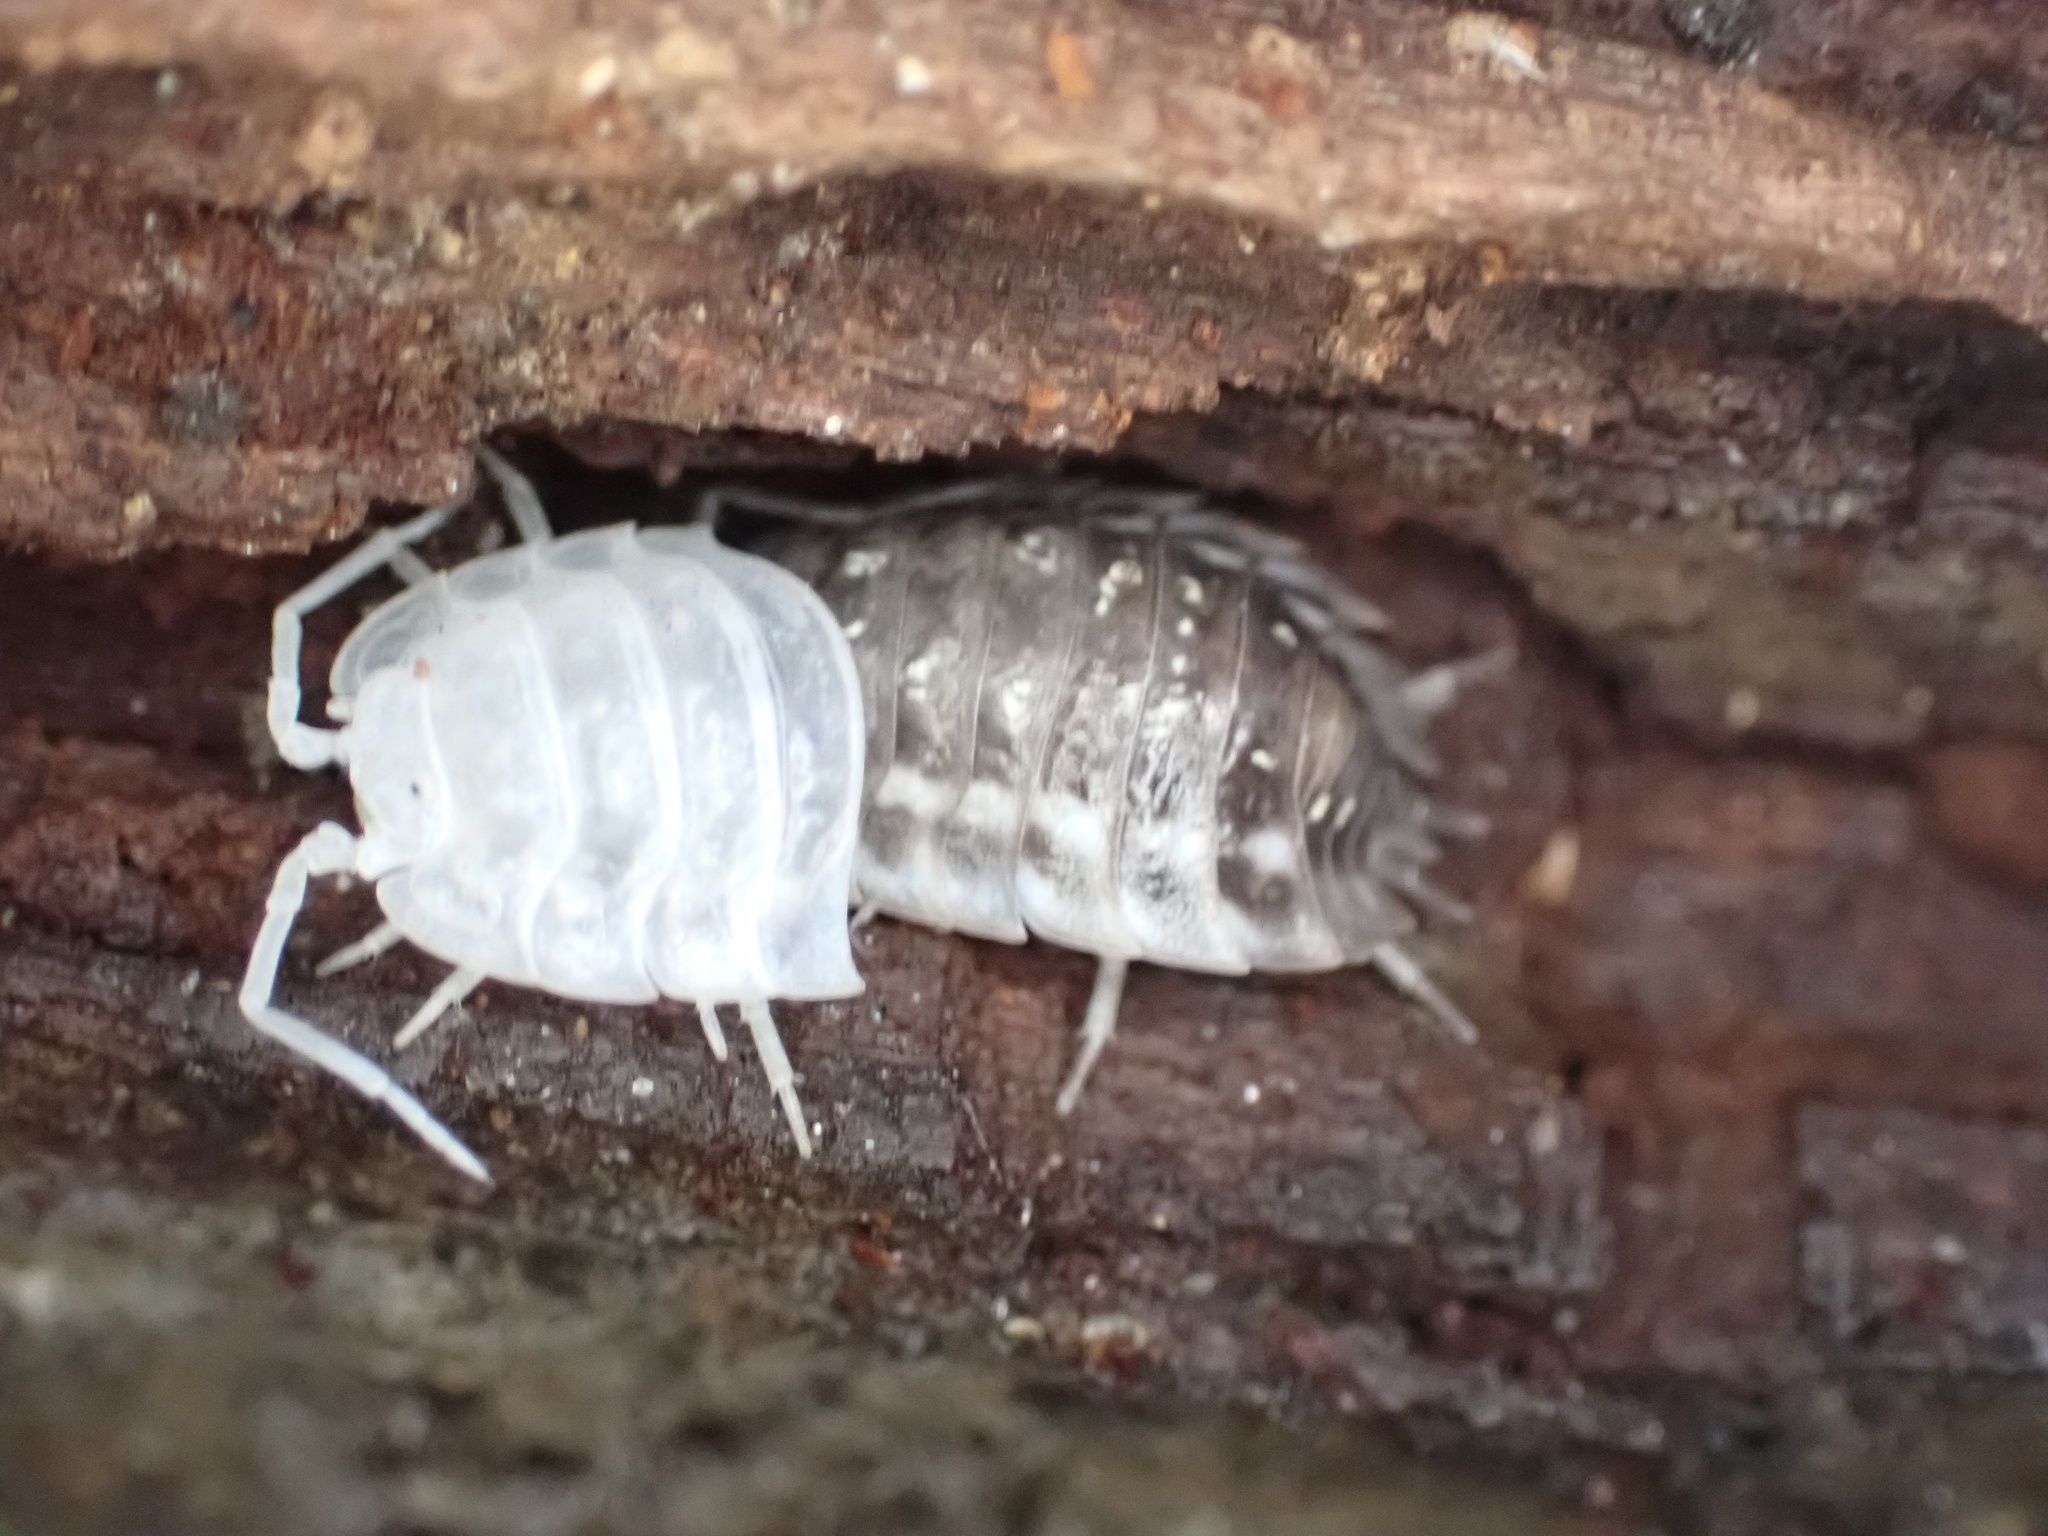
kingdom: Animalia
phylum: Arthropoda
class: Malacostraca
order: Isopoda
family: Oniscidae
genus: Oniscus
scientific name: Oniscus asellus
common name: Common shiny woodlouse
